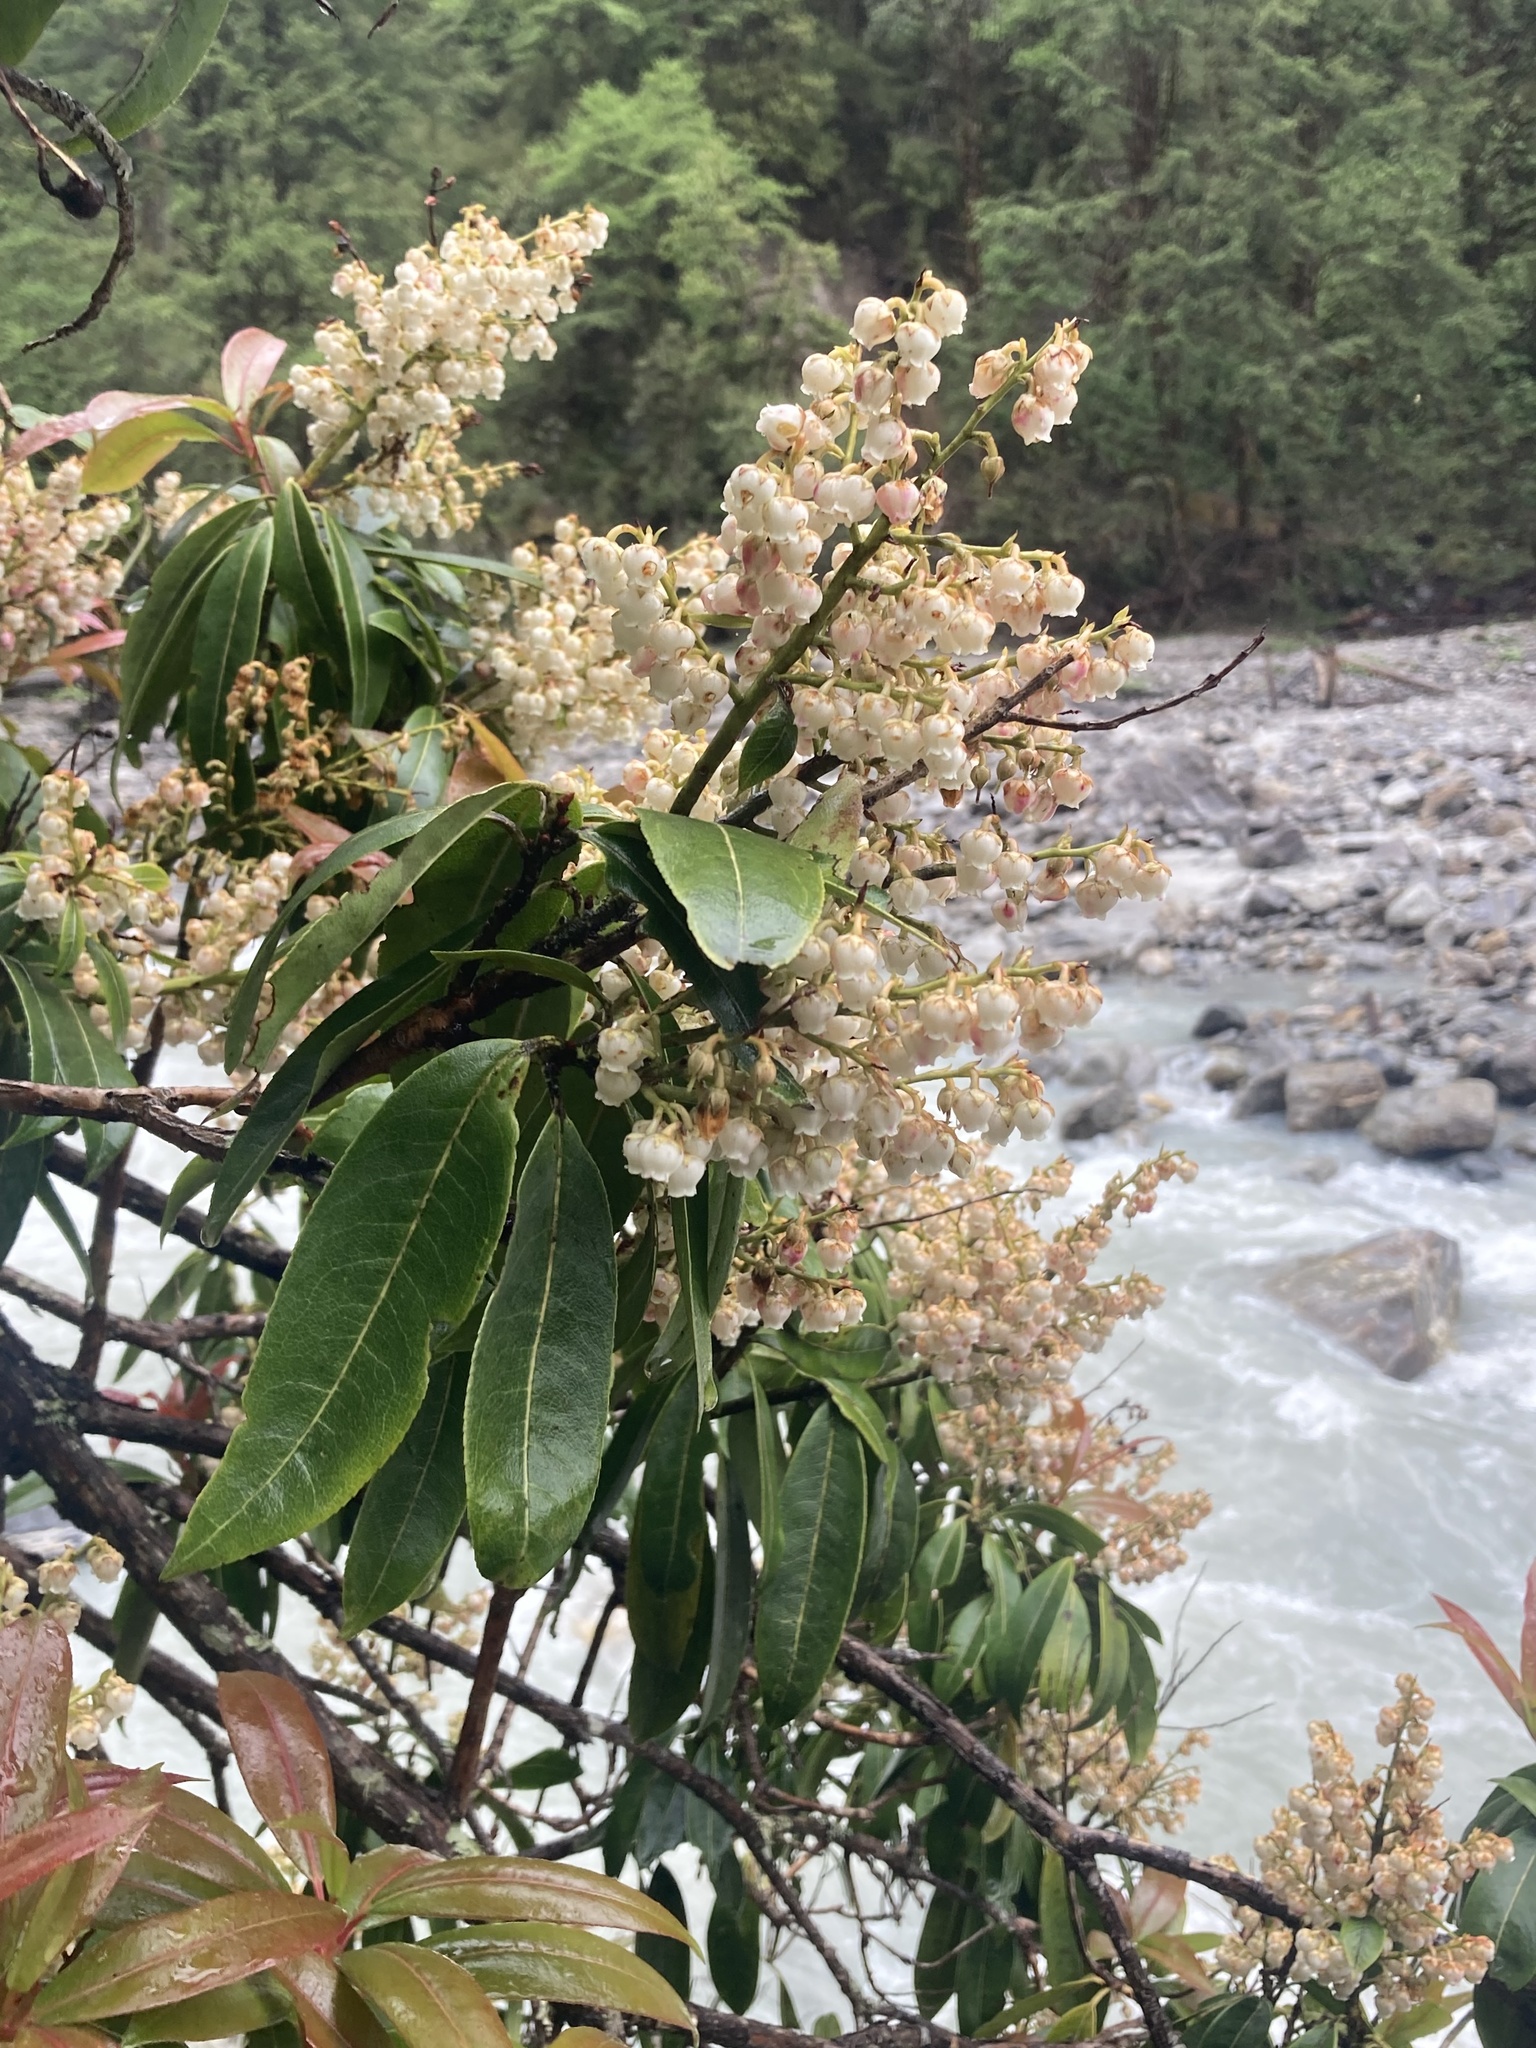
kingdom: Plantae
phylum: Tracheophyta
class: Magnoliopsida
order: Ericales
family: Ericaceae
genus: Pieris
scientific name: Pieris formosa
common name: Formosan pieris
